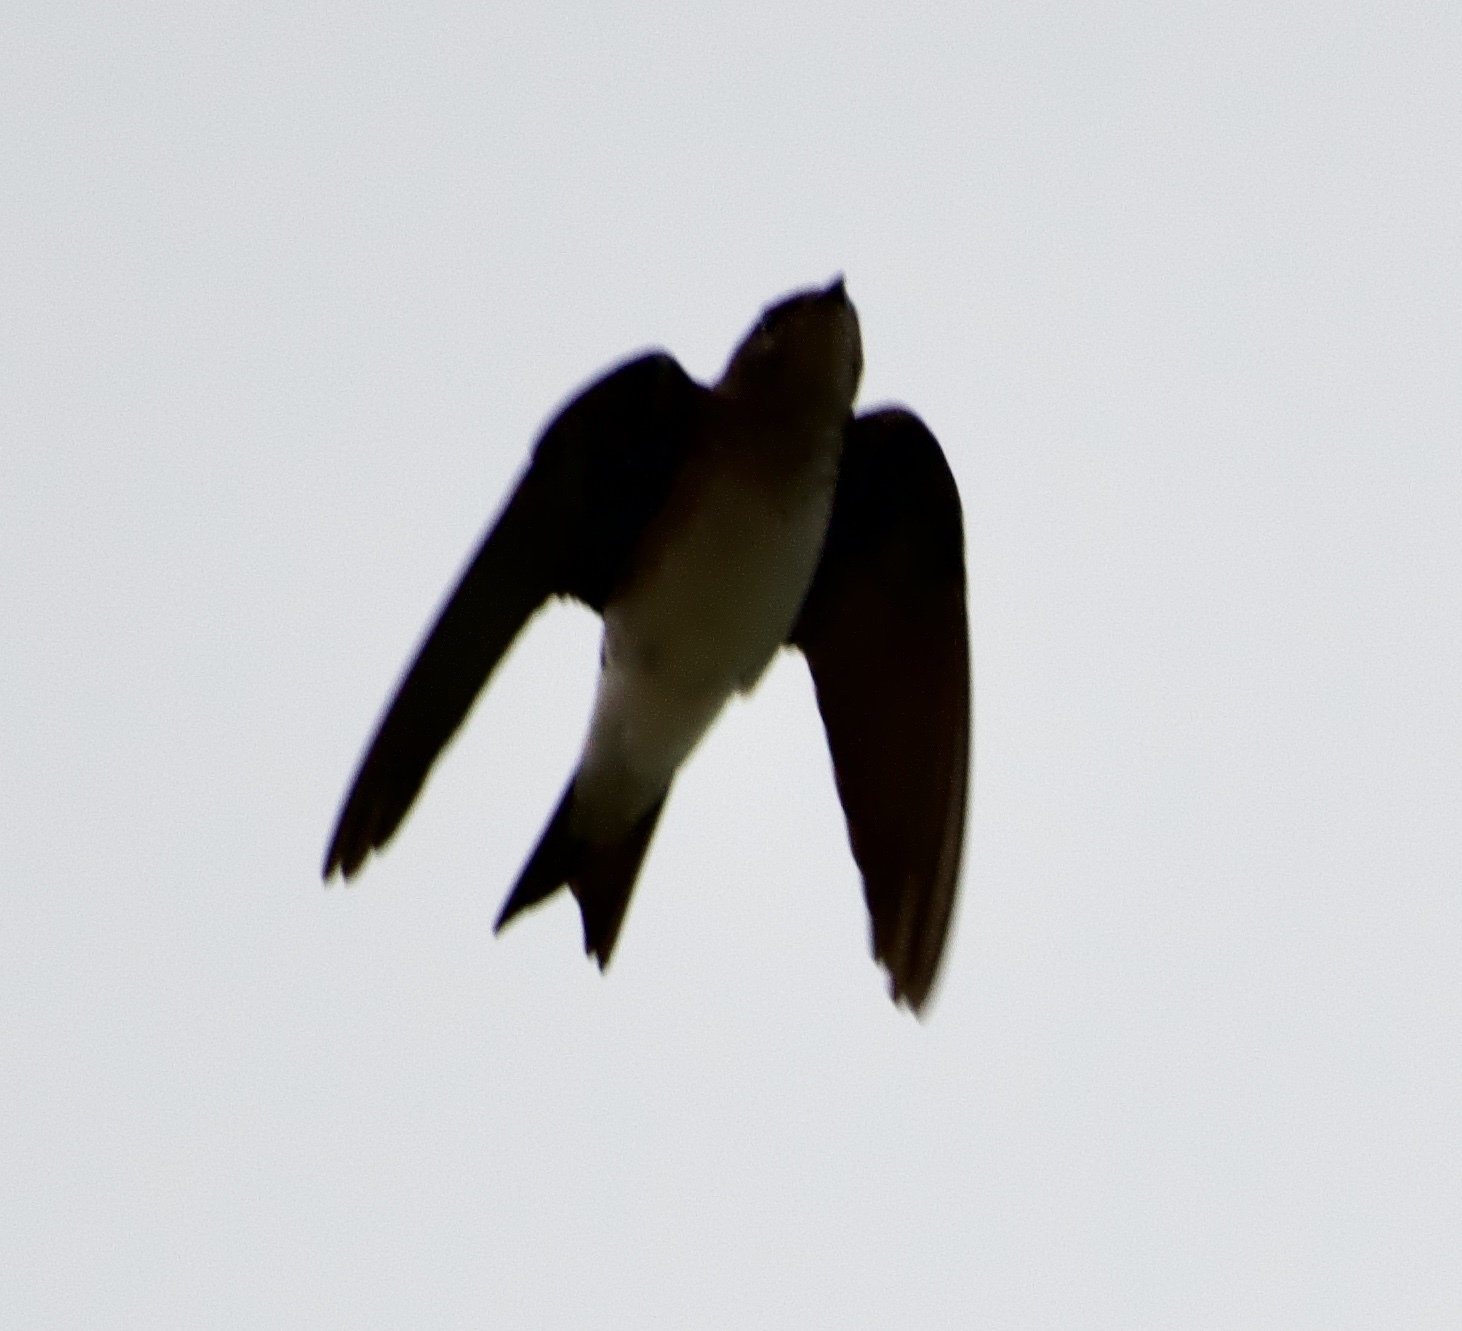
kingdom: Animalia
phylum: Chordata
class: Aves
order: Passeriformes
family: Hirundinidae
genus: Progne
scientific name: Progne chalybea
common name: Grey-breasted martin
